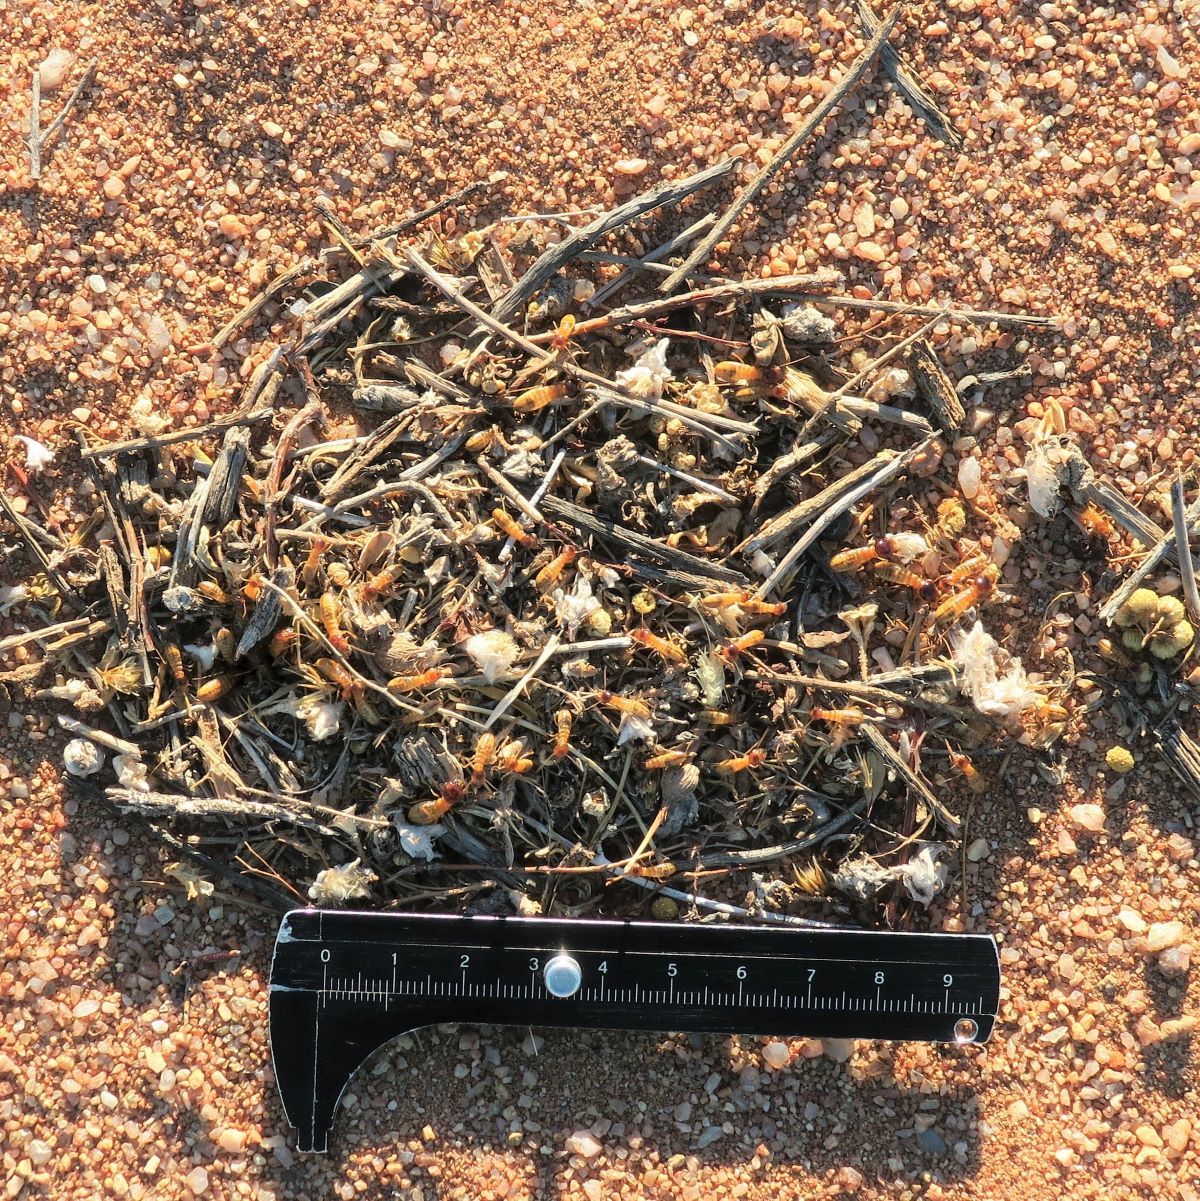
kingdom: Animalia
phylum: Arthropoda
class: Insecta
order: Blattodea
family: Hodotermitidae
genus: Microhodotermes
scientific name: Microhodotermes viator
